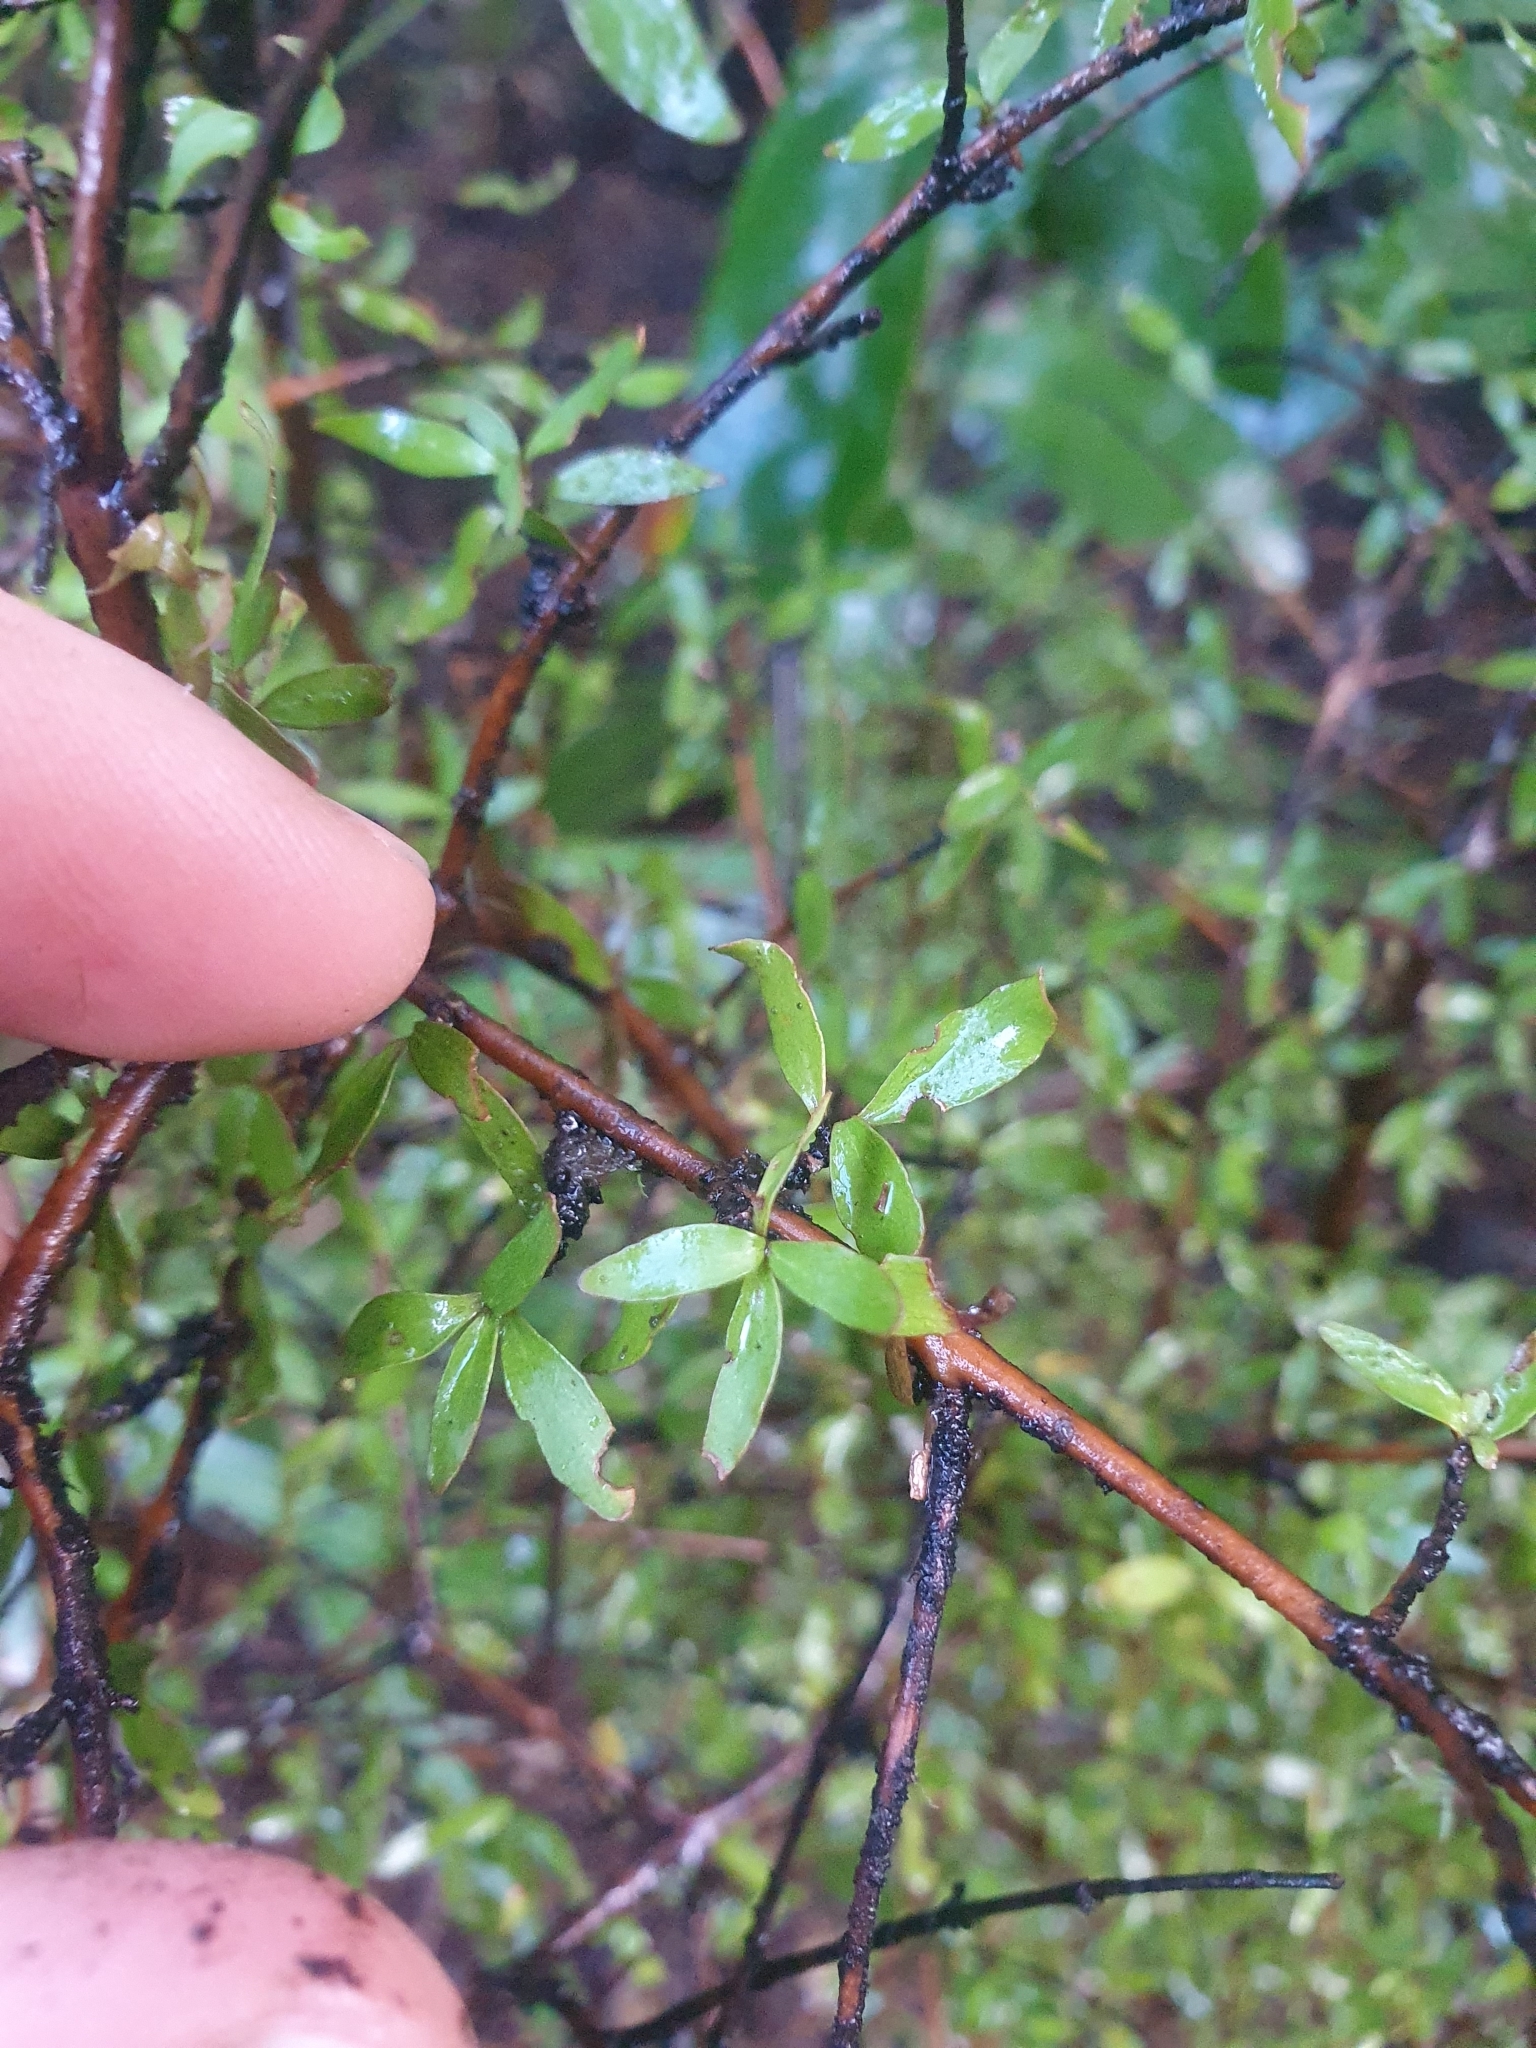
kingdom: Plantae
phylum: Tracheophyta
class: Magnoliopsida
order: Gentianales
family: Rubiaceae
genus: Coprosma
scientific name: Coprosma rhamnoides
